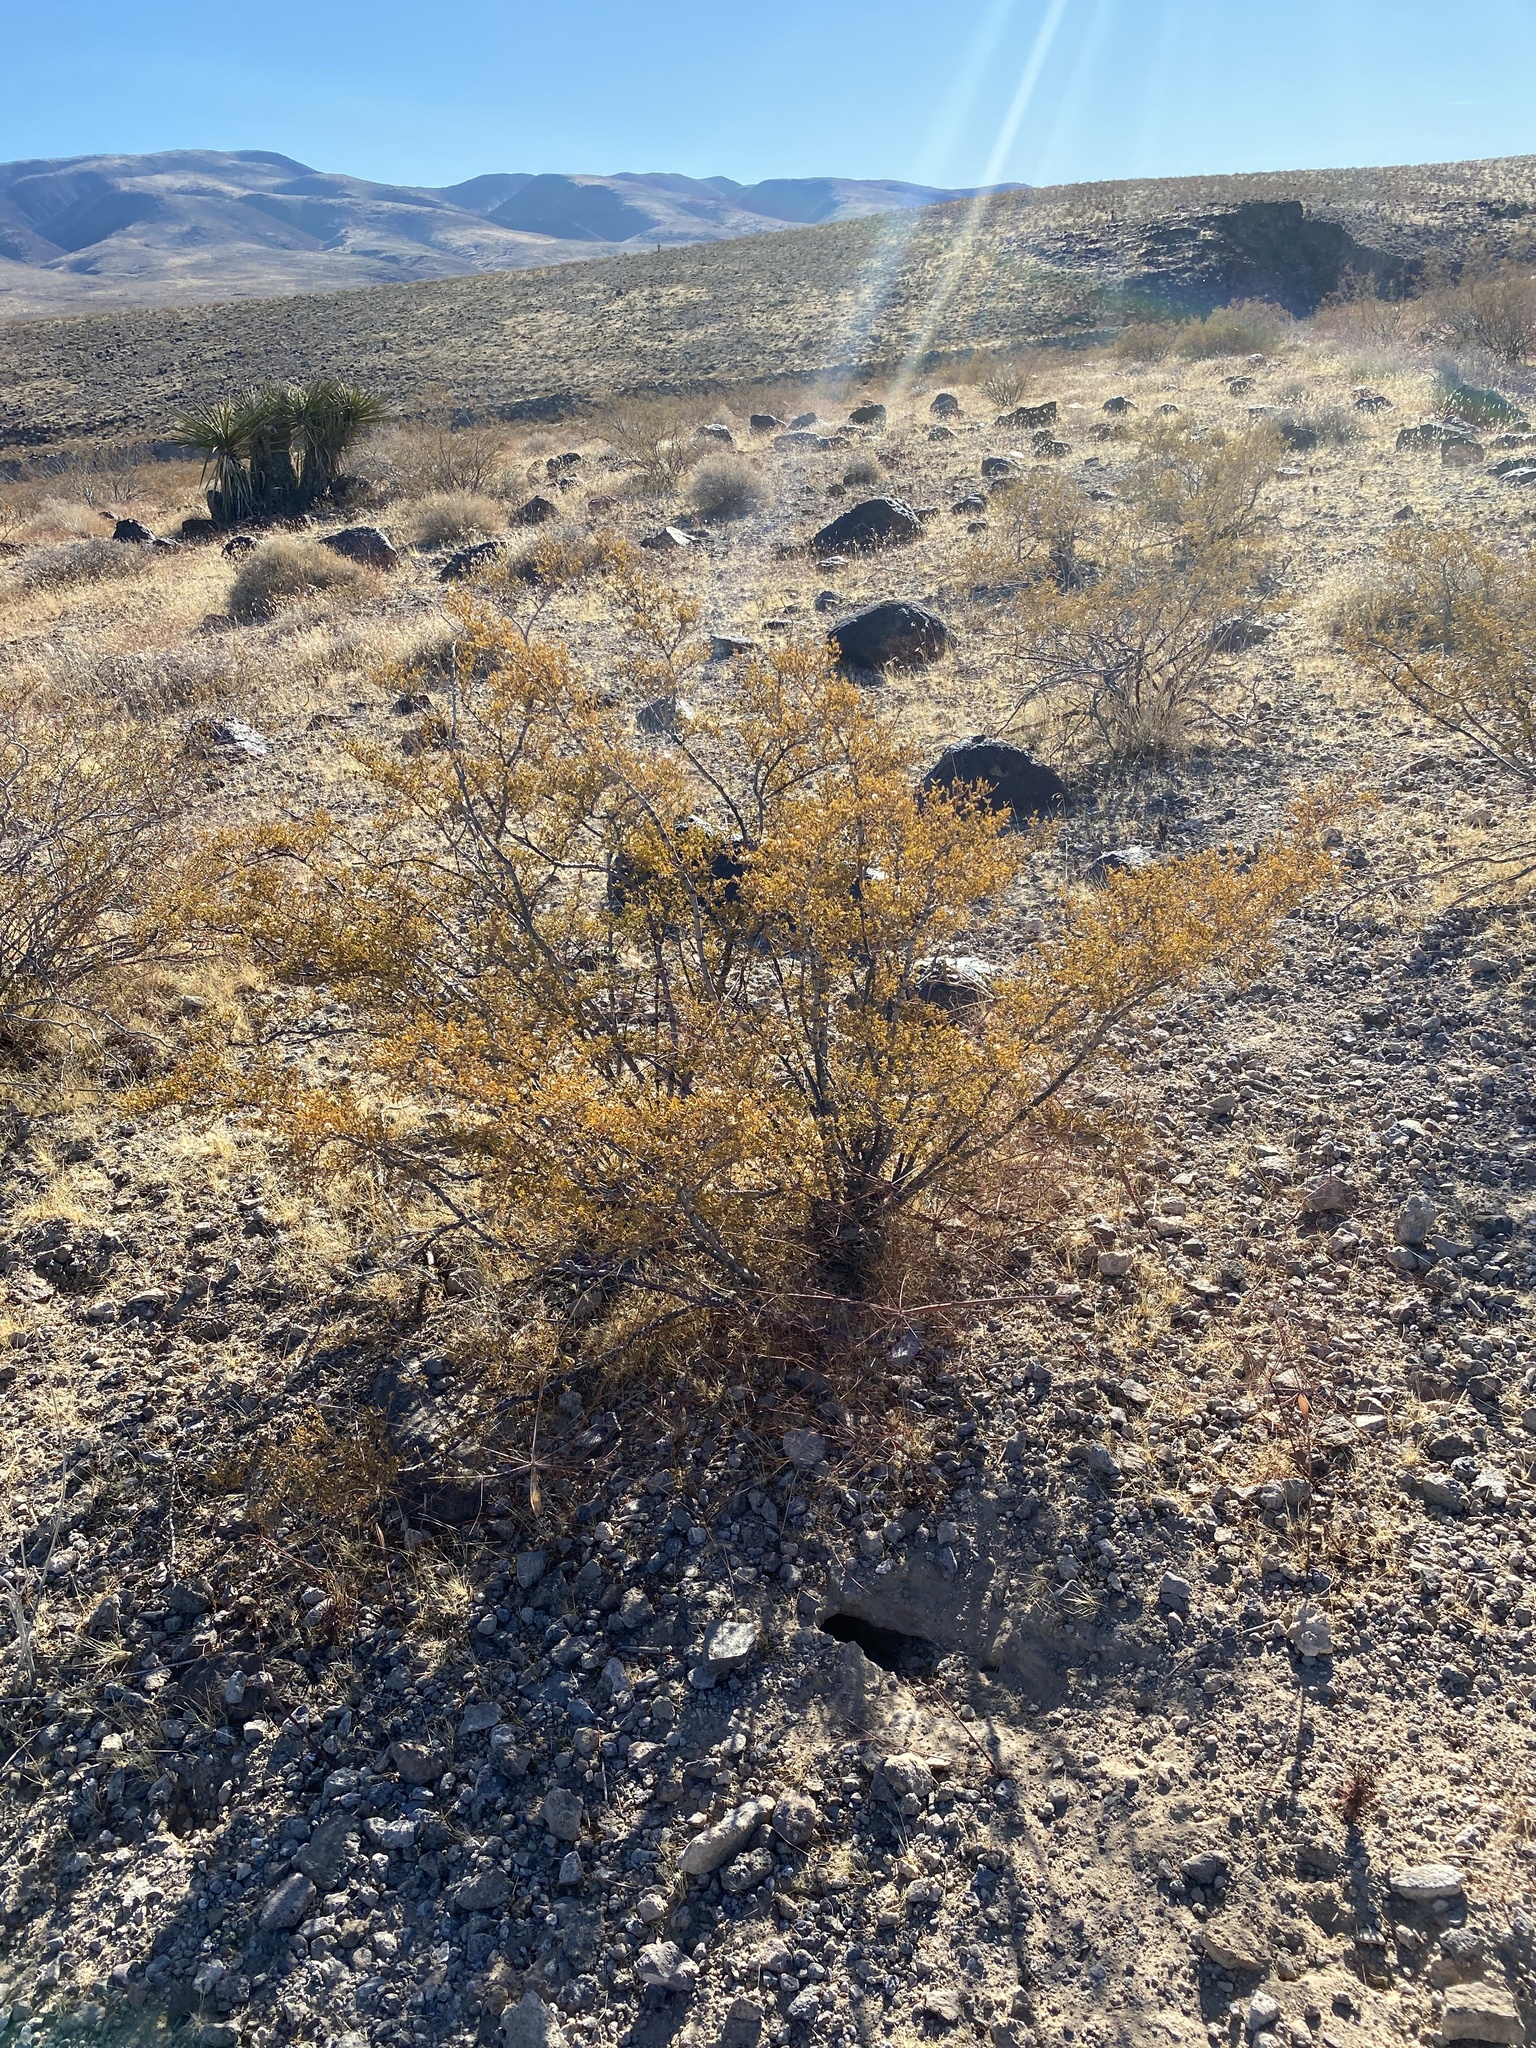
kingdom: Plantae
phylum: Tracheophyta
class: Magnoliopsida
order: Zygophyllales
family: Zygophyllaceae
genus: Larrea
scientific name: Larrea tridentata
